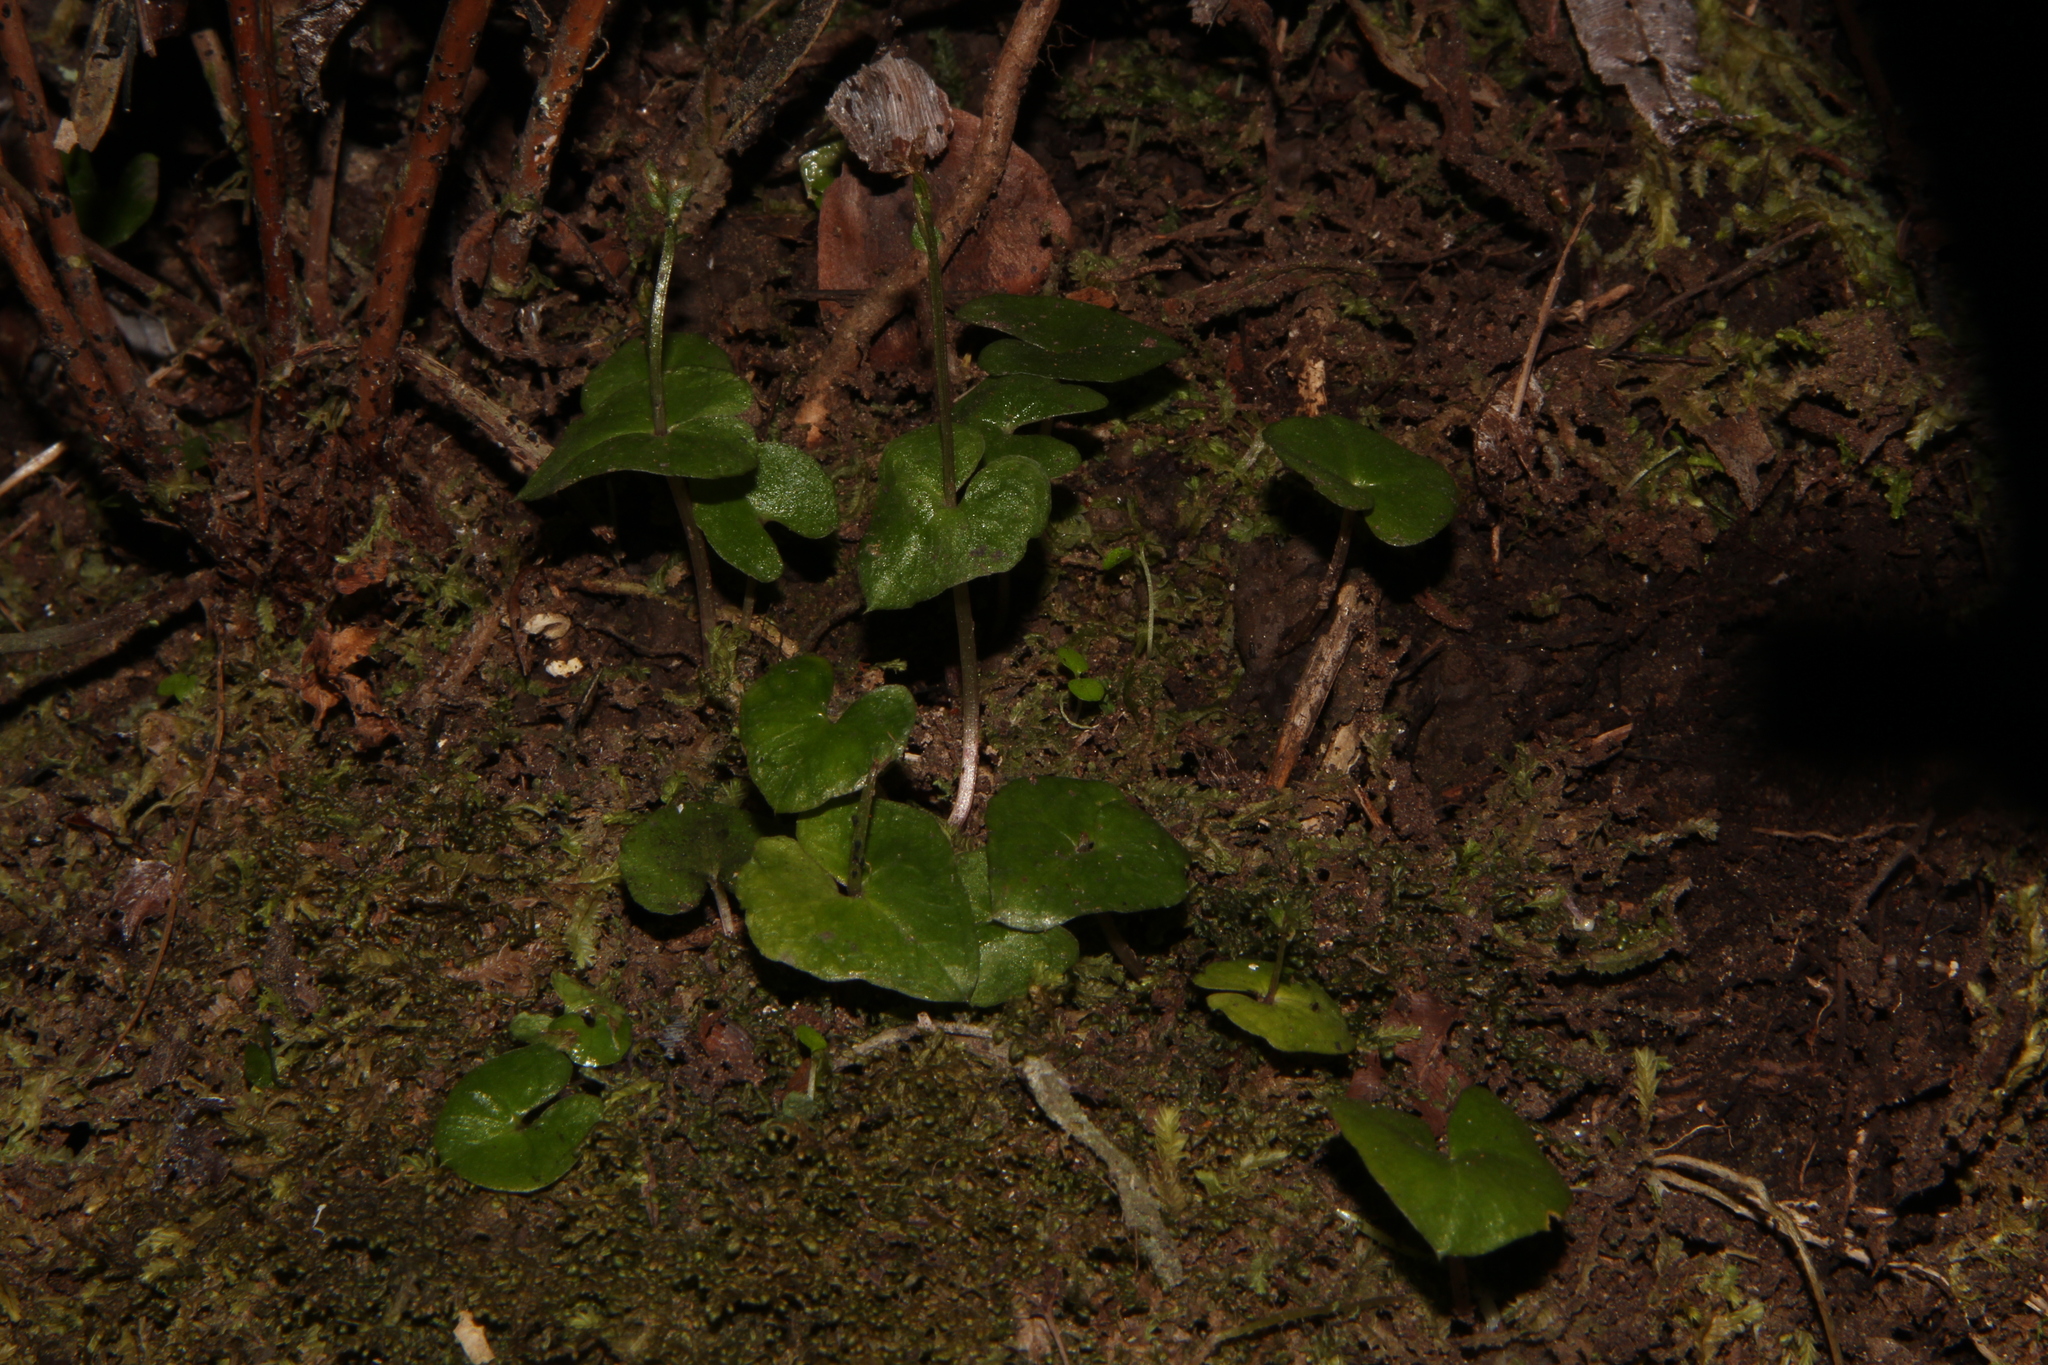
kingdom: Plantae
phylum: Tracheophyta
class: Liliopsida
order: Asparagales
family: Orchidaceae
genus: Acianthus
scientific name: Acianthus sinclairii
